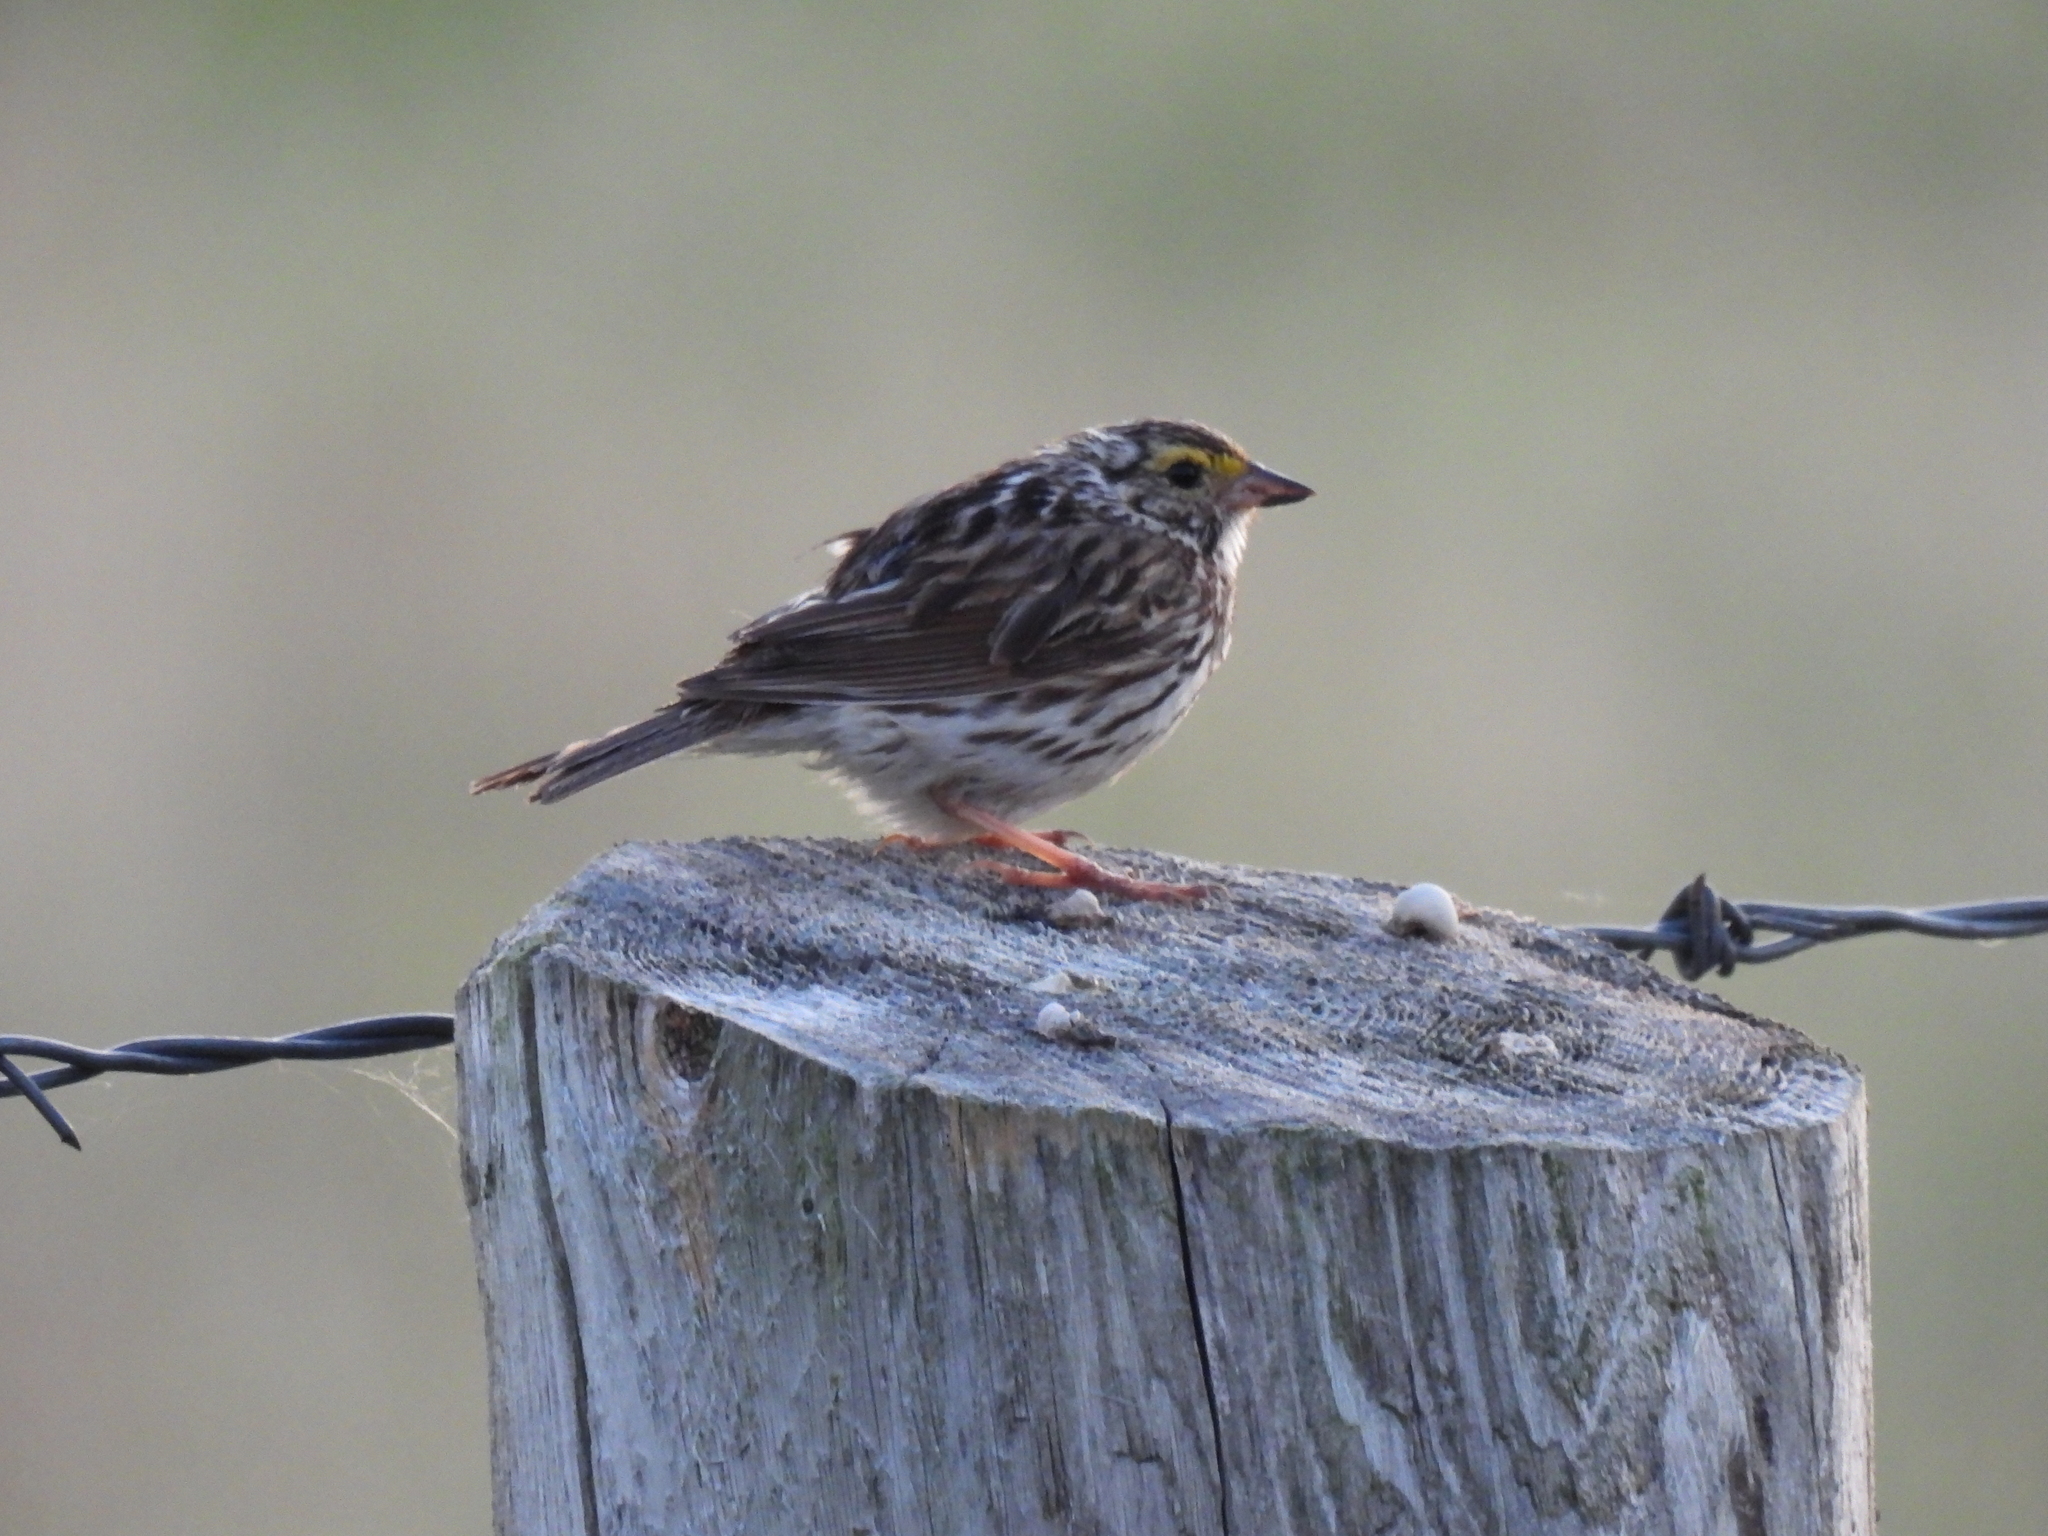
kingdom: Animalia
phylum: Chordata
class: Aves
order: Passeriformes
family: Passerellidae
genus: Passerculus
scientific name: Passerculus sandwichensis
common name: Savannah sparrow
